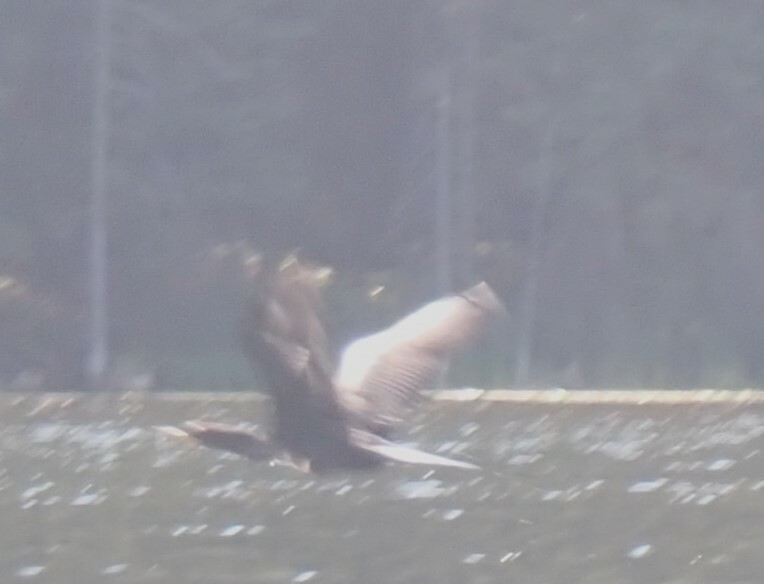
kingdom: Animalia
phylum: Chordata
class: Aves
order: Suliformes
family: Phalacrocoracidae
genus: Phalacrocorax
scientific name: Phalacrocorax auritus
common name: Double-crested cormorant
